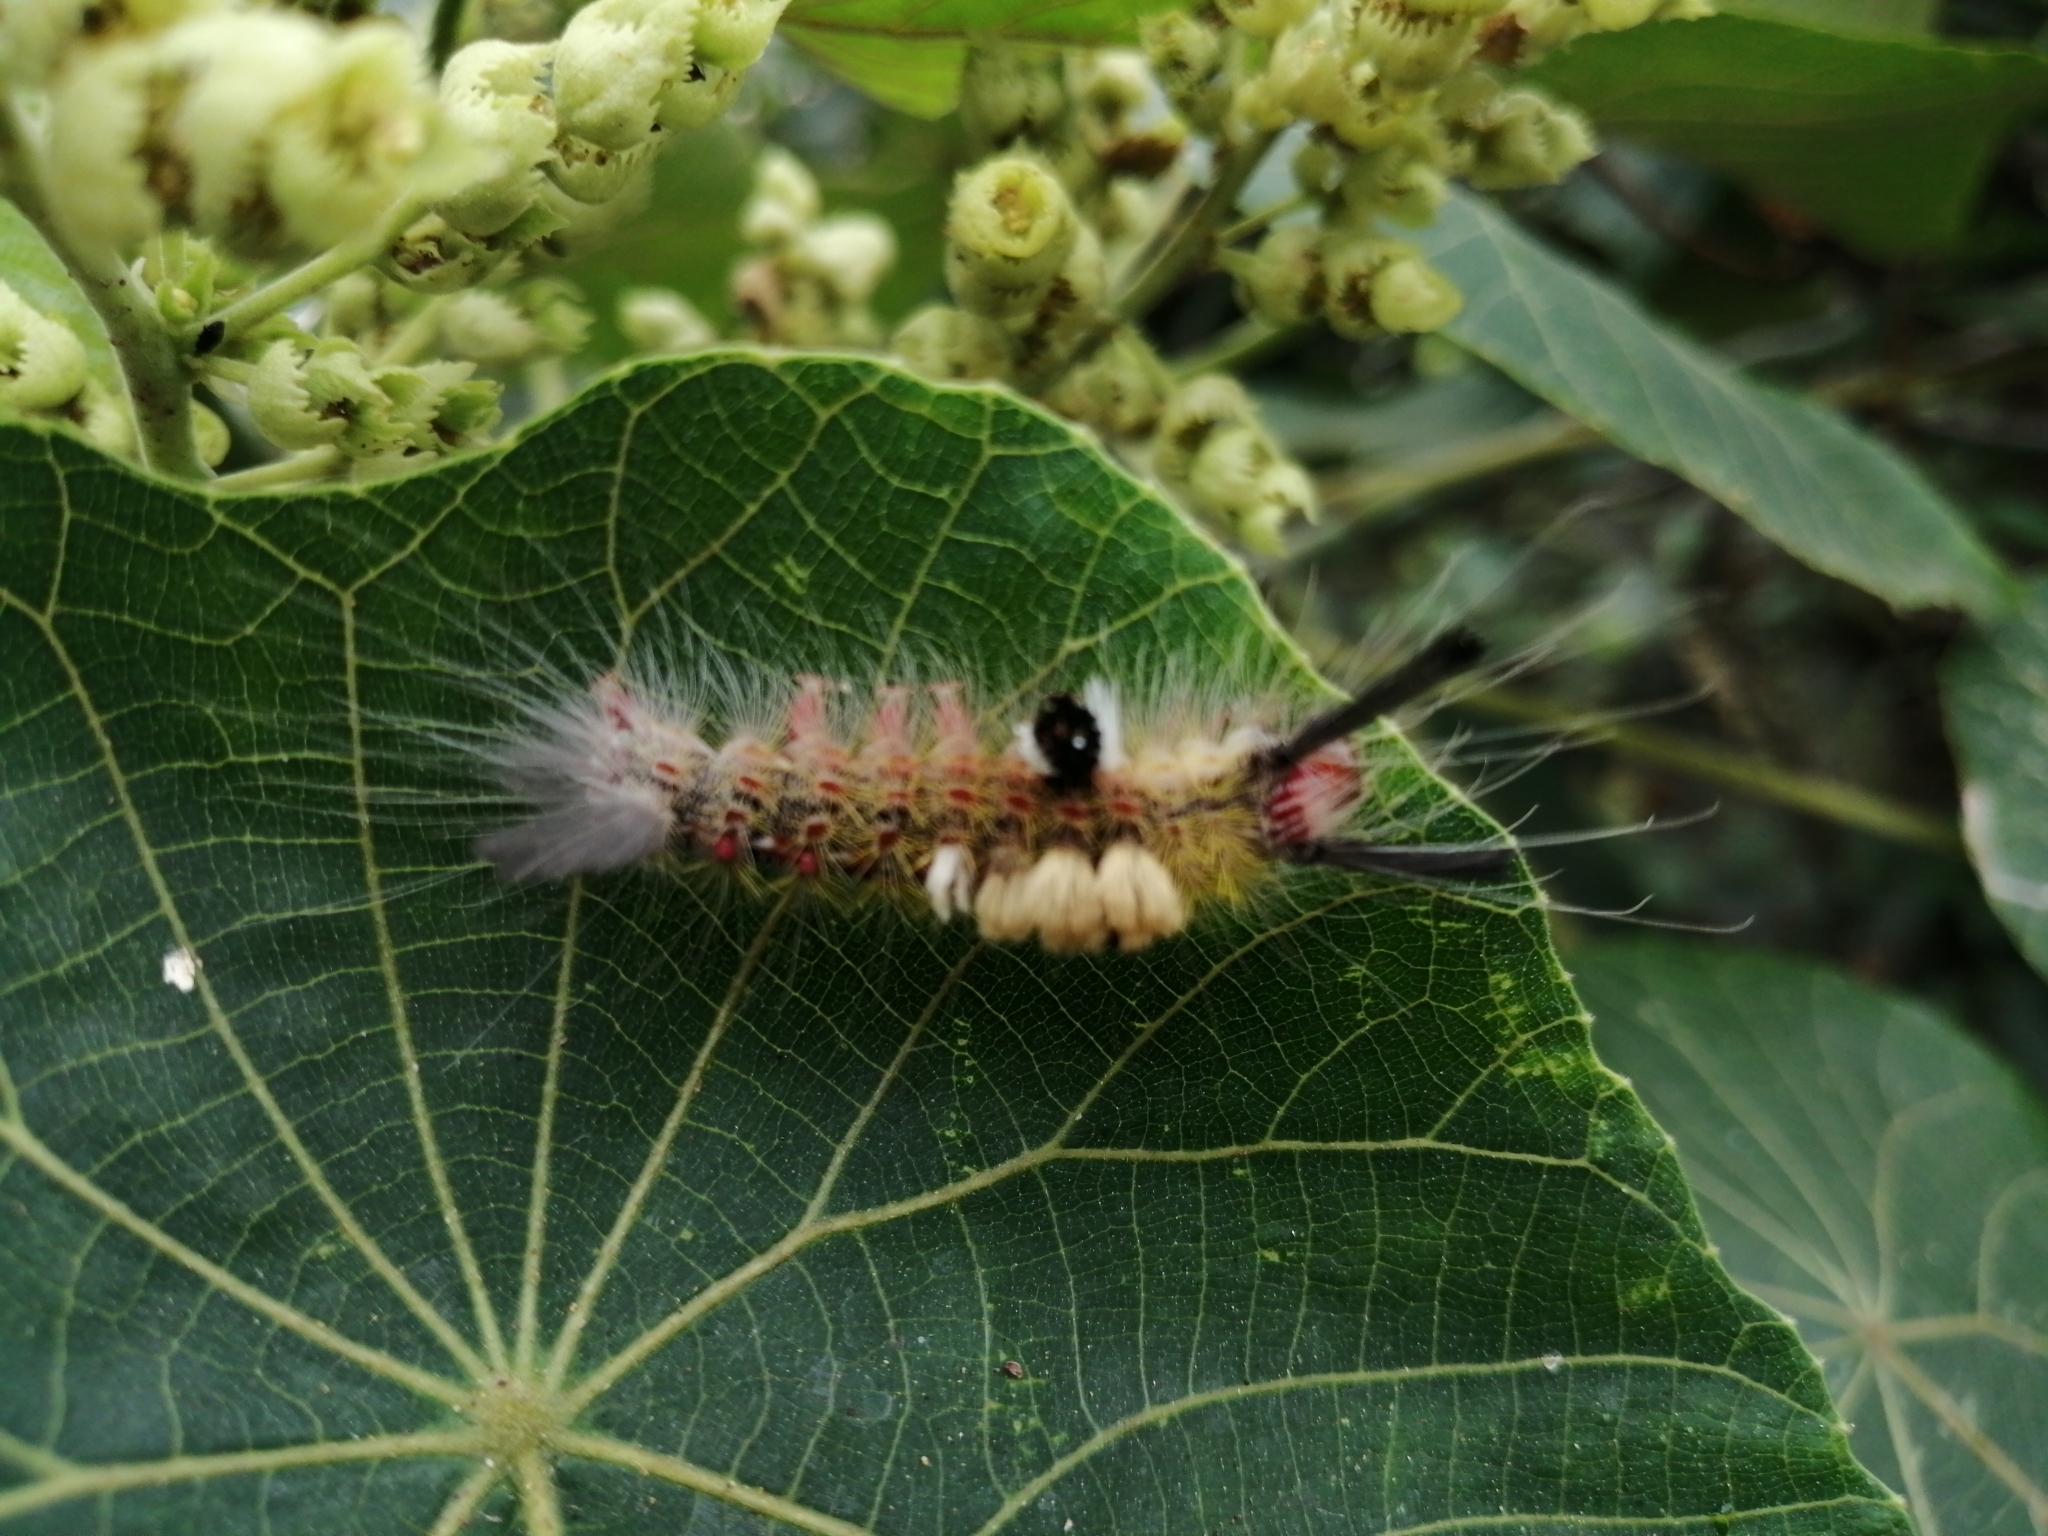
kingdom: Animalia
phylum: Arthropoda
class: Insecta
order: Lepidoptera
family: Erebidae
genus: Olene
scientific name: Olene mendosa
